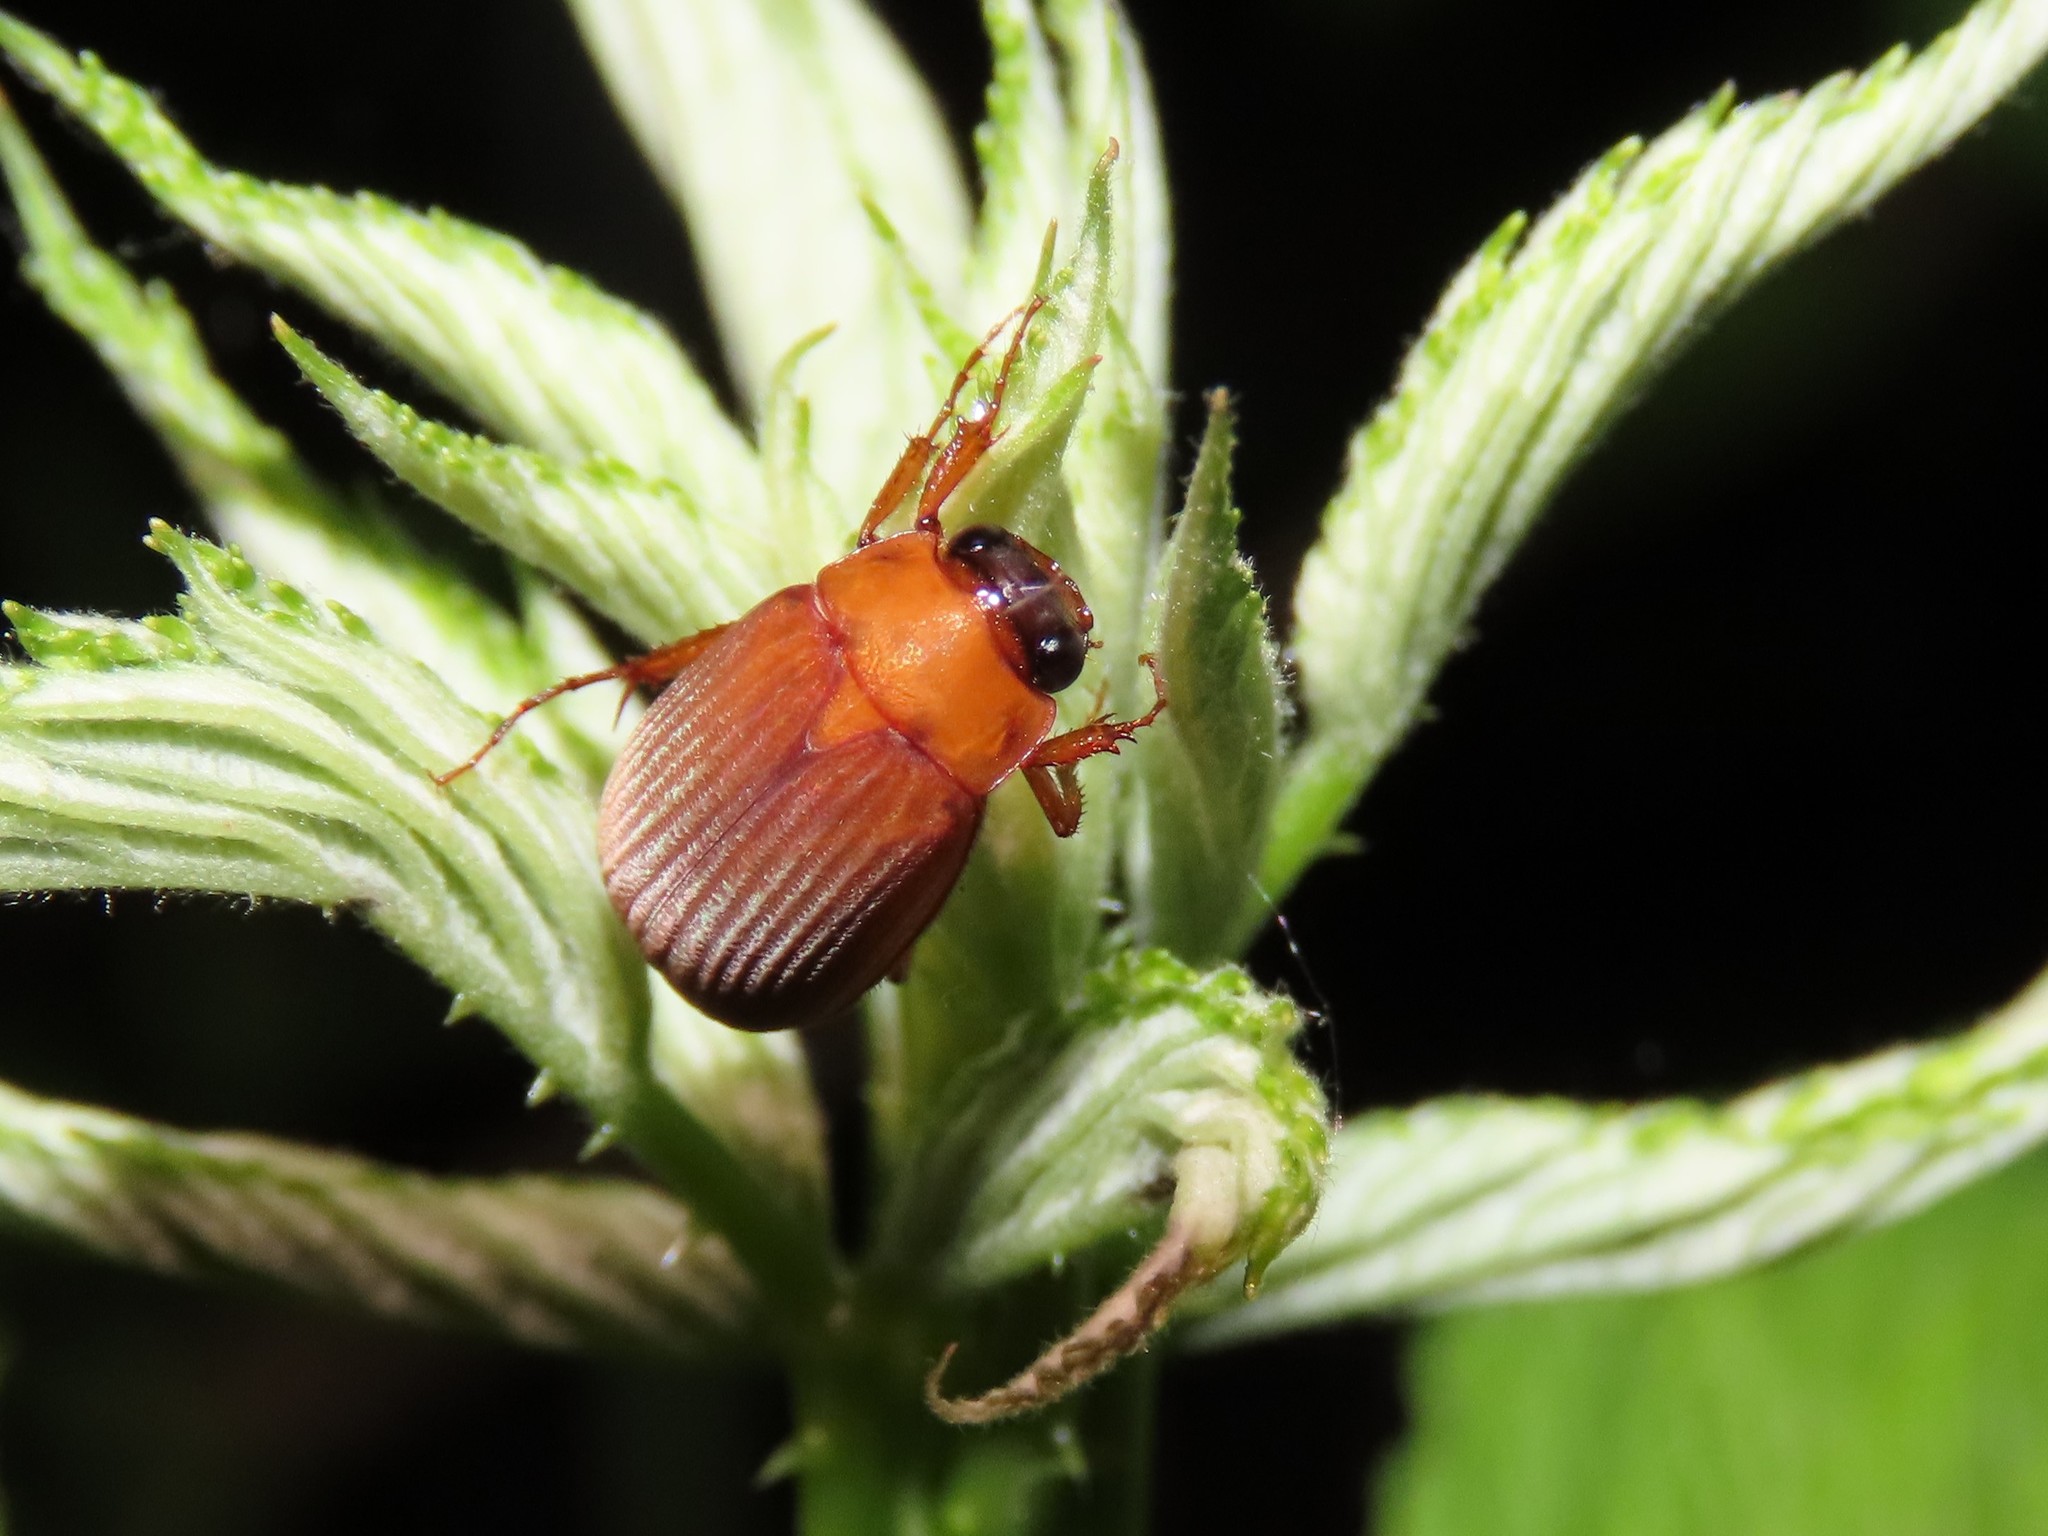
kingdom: Animalia
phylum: Arthropoda
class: Insecta
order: Coleoptera
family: Scarabaeidae
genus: Nipponoserica
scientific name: Nipponoserica peregrina
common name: Scarab beetle
